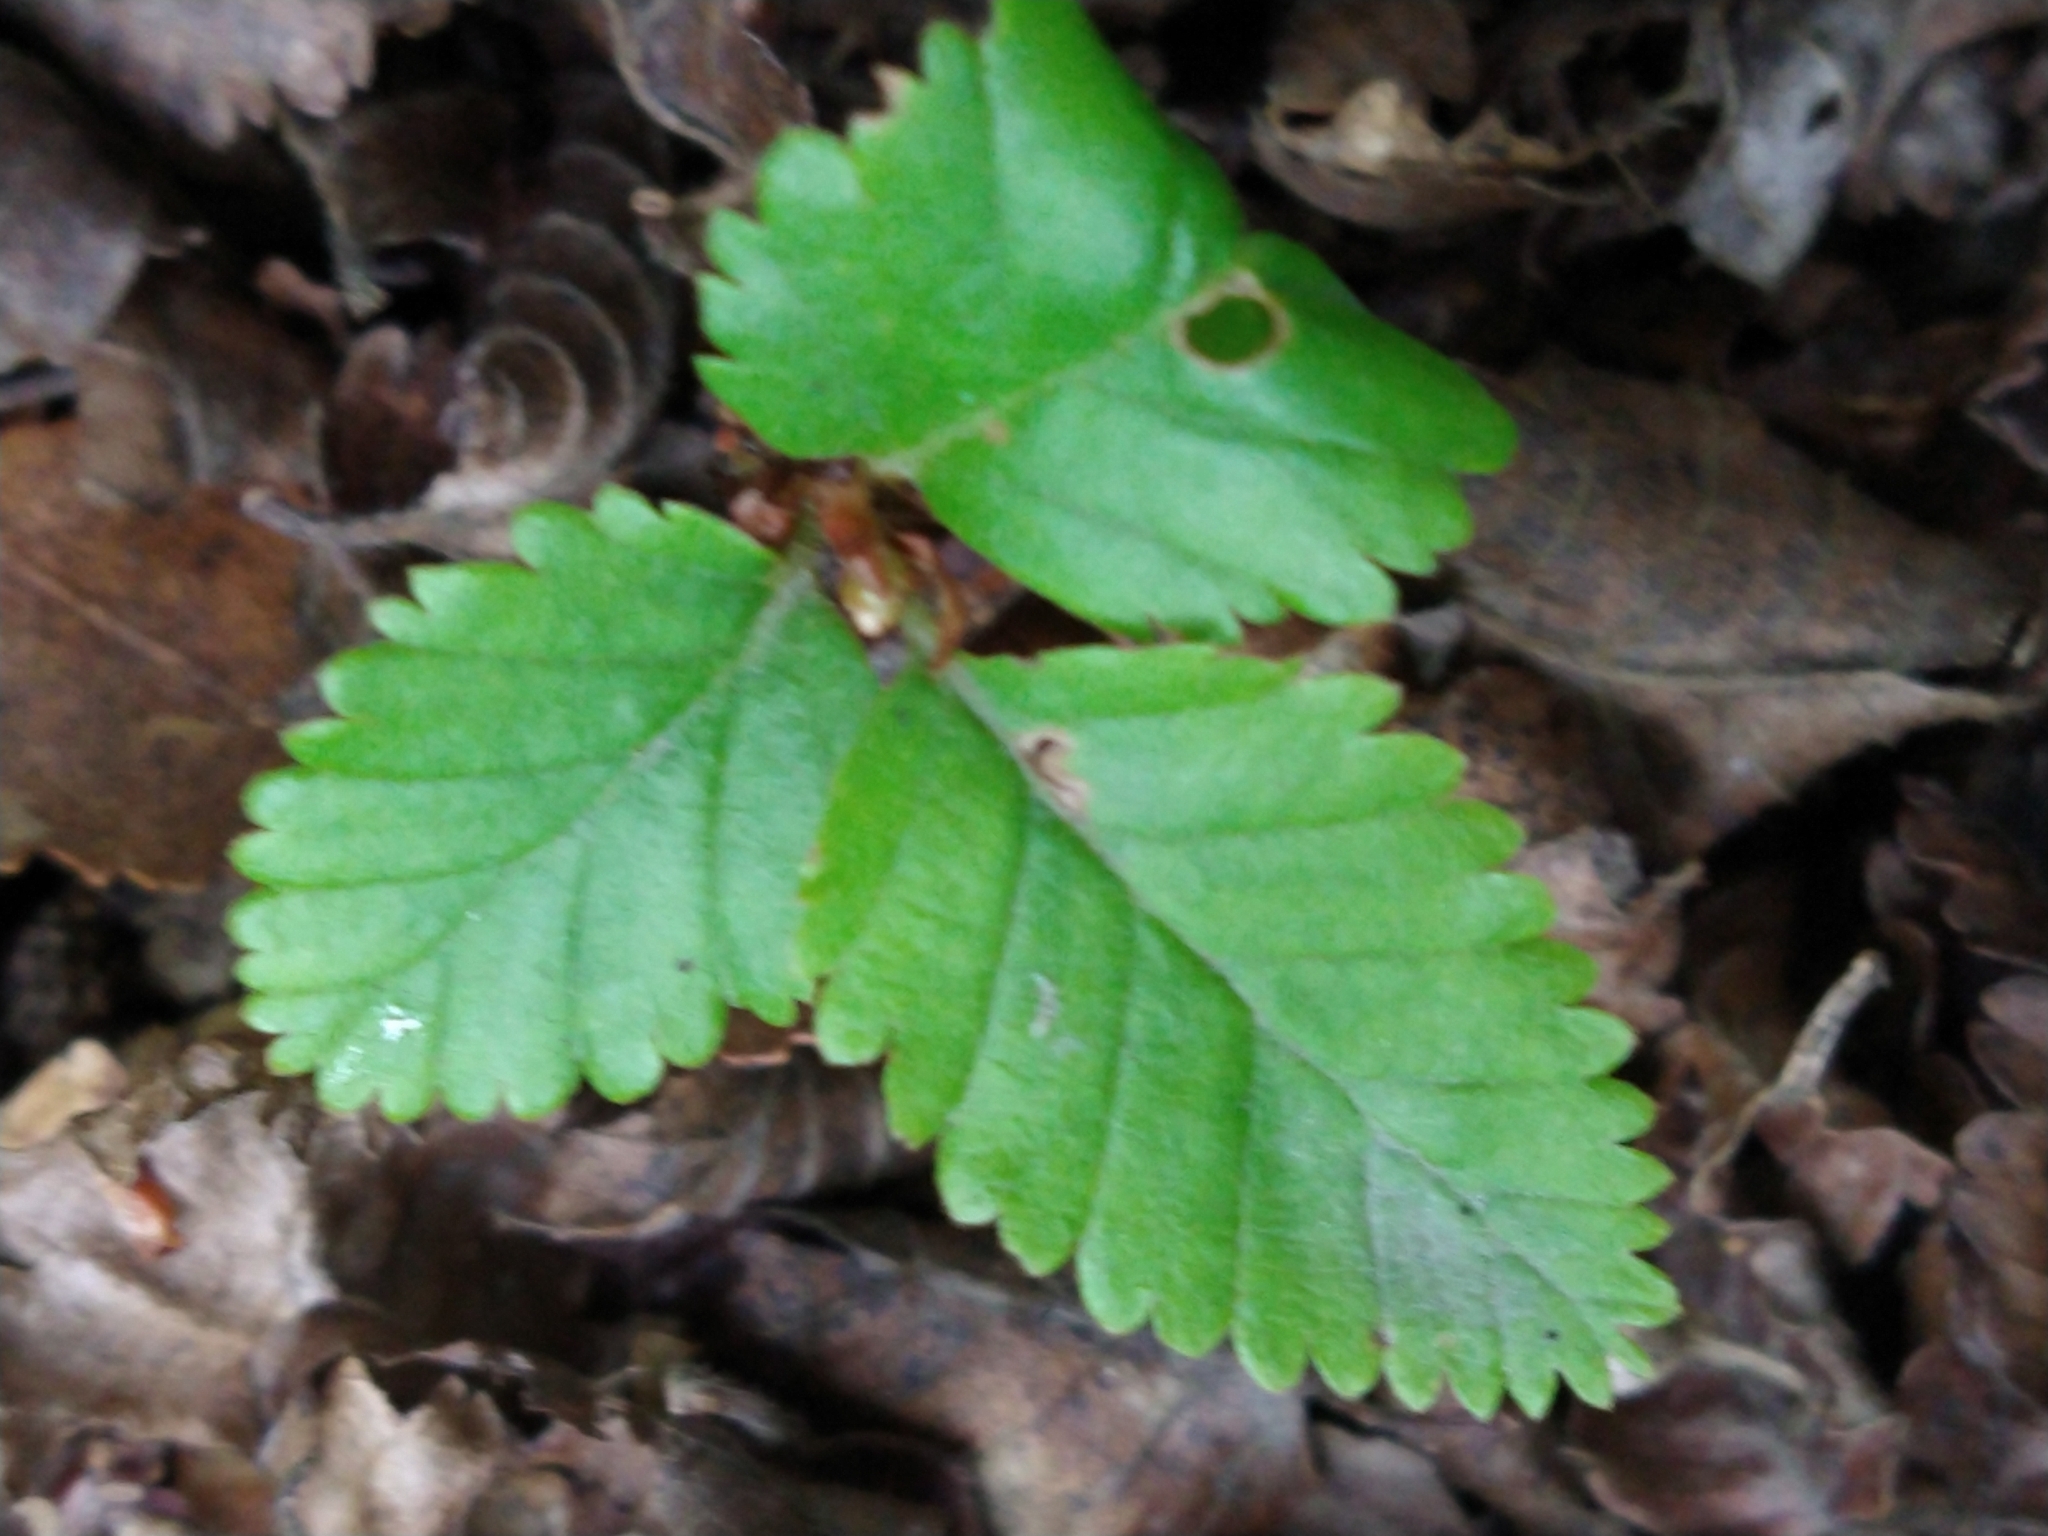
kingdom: Plantae
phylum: Tracheophyta
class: Magnoliopsida
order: Fagales
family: Nothofagaceae
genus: Nothofagus
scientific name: Nothofagus pumilio
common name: Lenga beech
